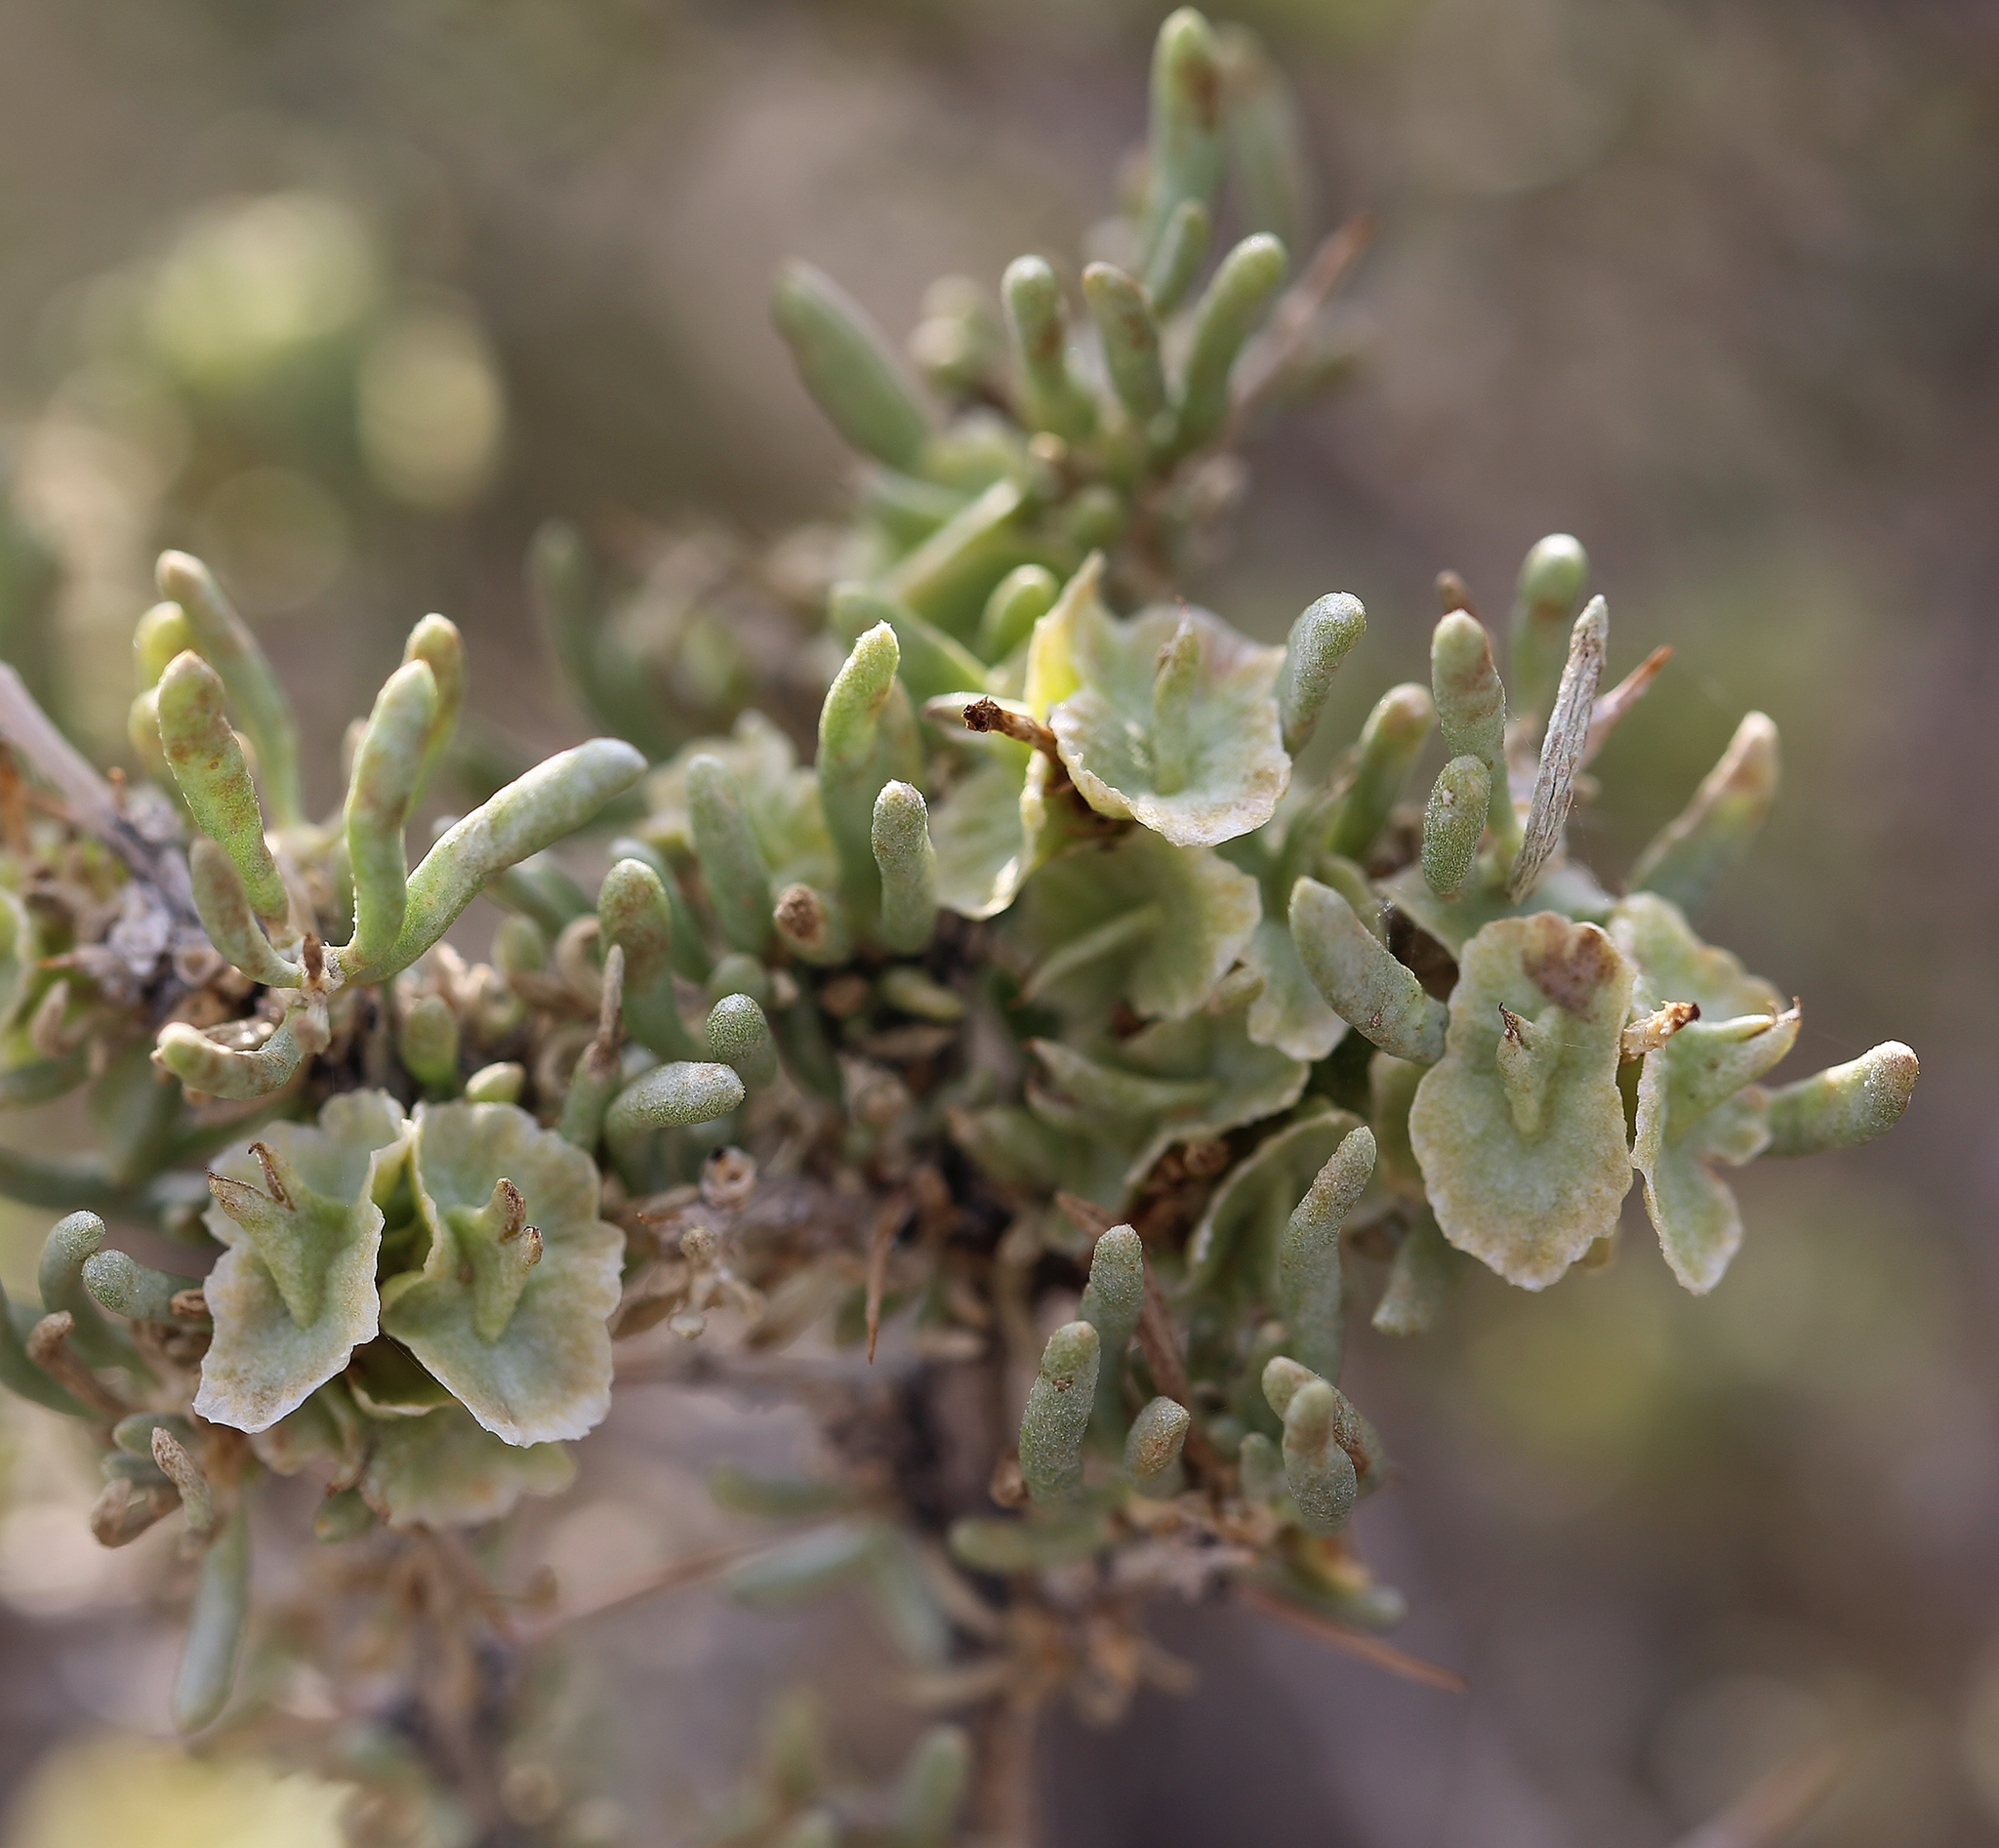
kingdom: Plantae
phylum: Tracheophyta
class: Magnoliopsida
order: Caryophyllales
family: Sarcobataceae
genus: Sarcobatus
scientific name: Sarcobatus baileyi
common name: Bailey greasewood
